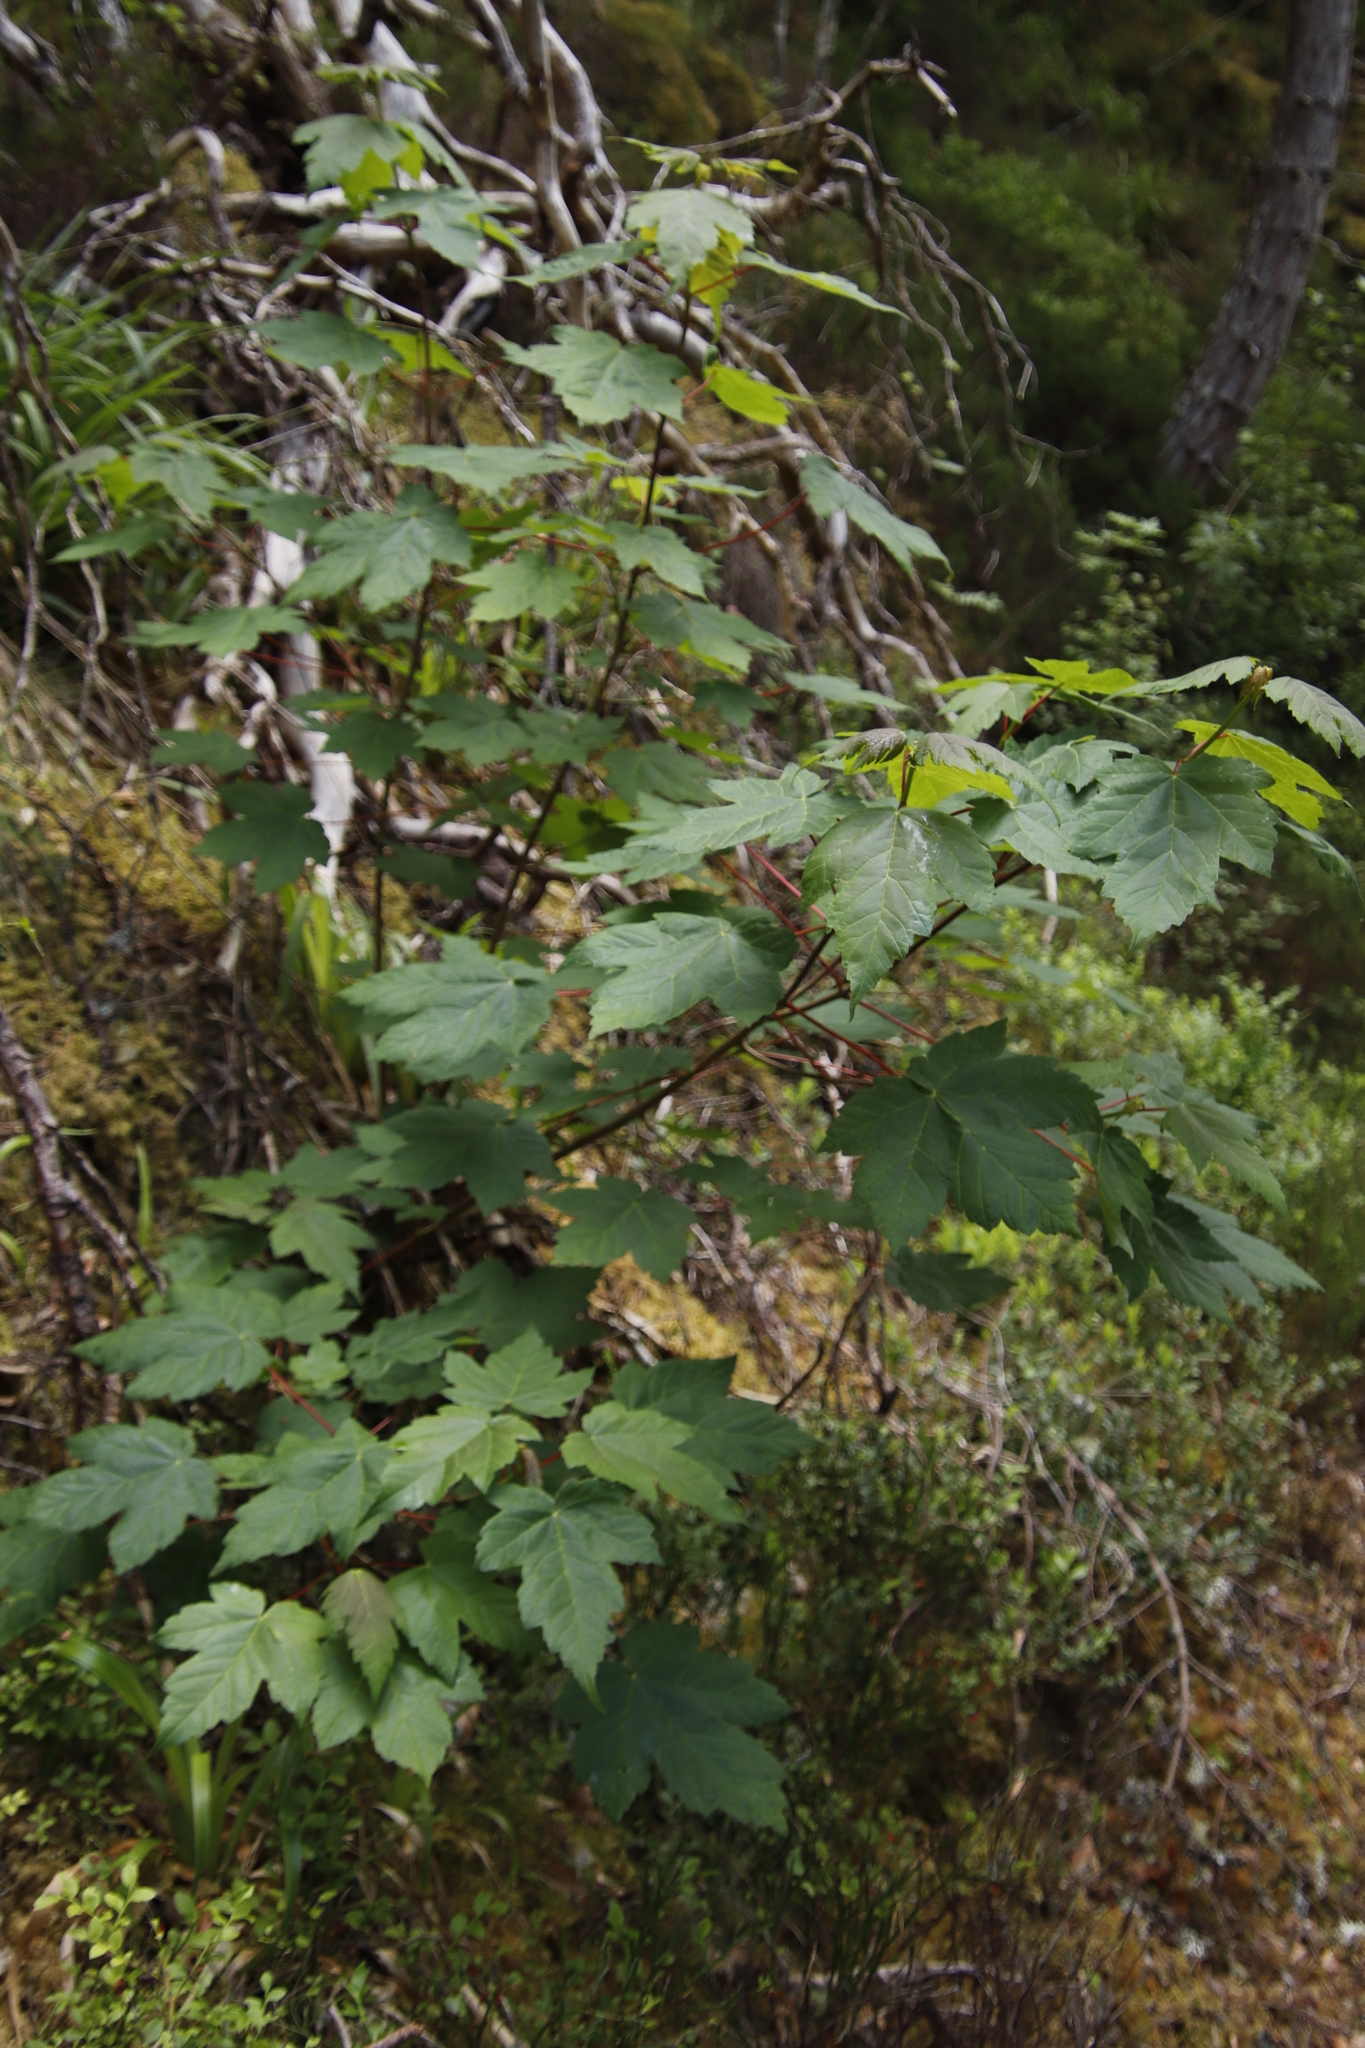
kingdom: Plantae
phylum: Tracheophyta
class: Magnoliopsida
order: Sapindales
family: Sapindaceae
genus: Acer
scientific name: Acer pseudoplatanus
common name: Sycamore
